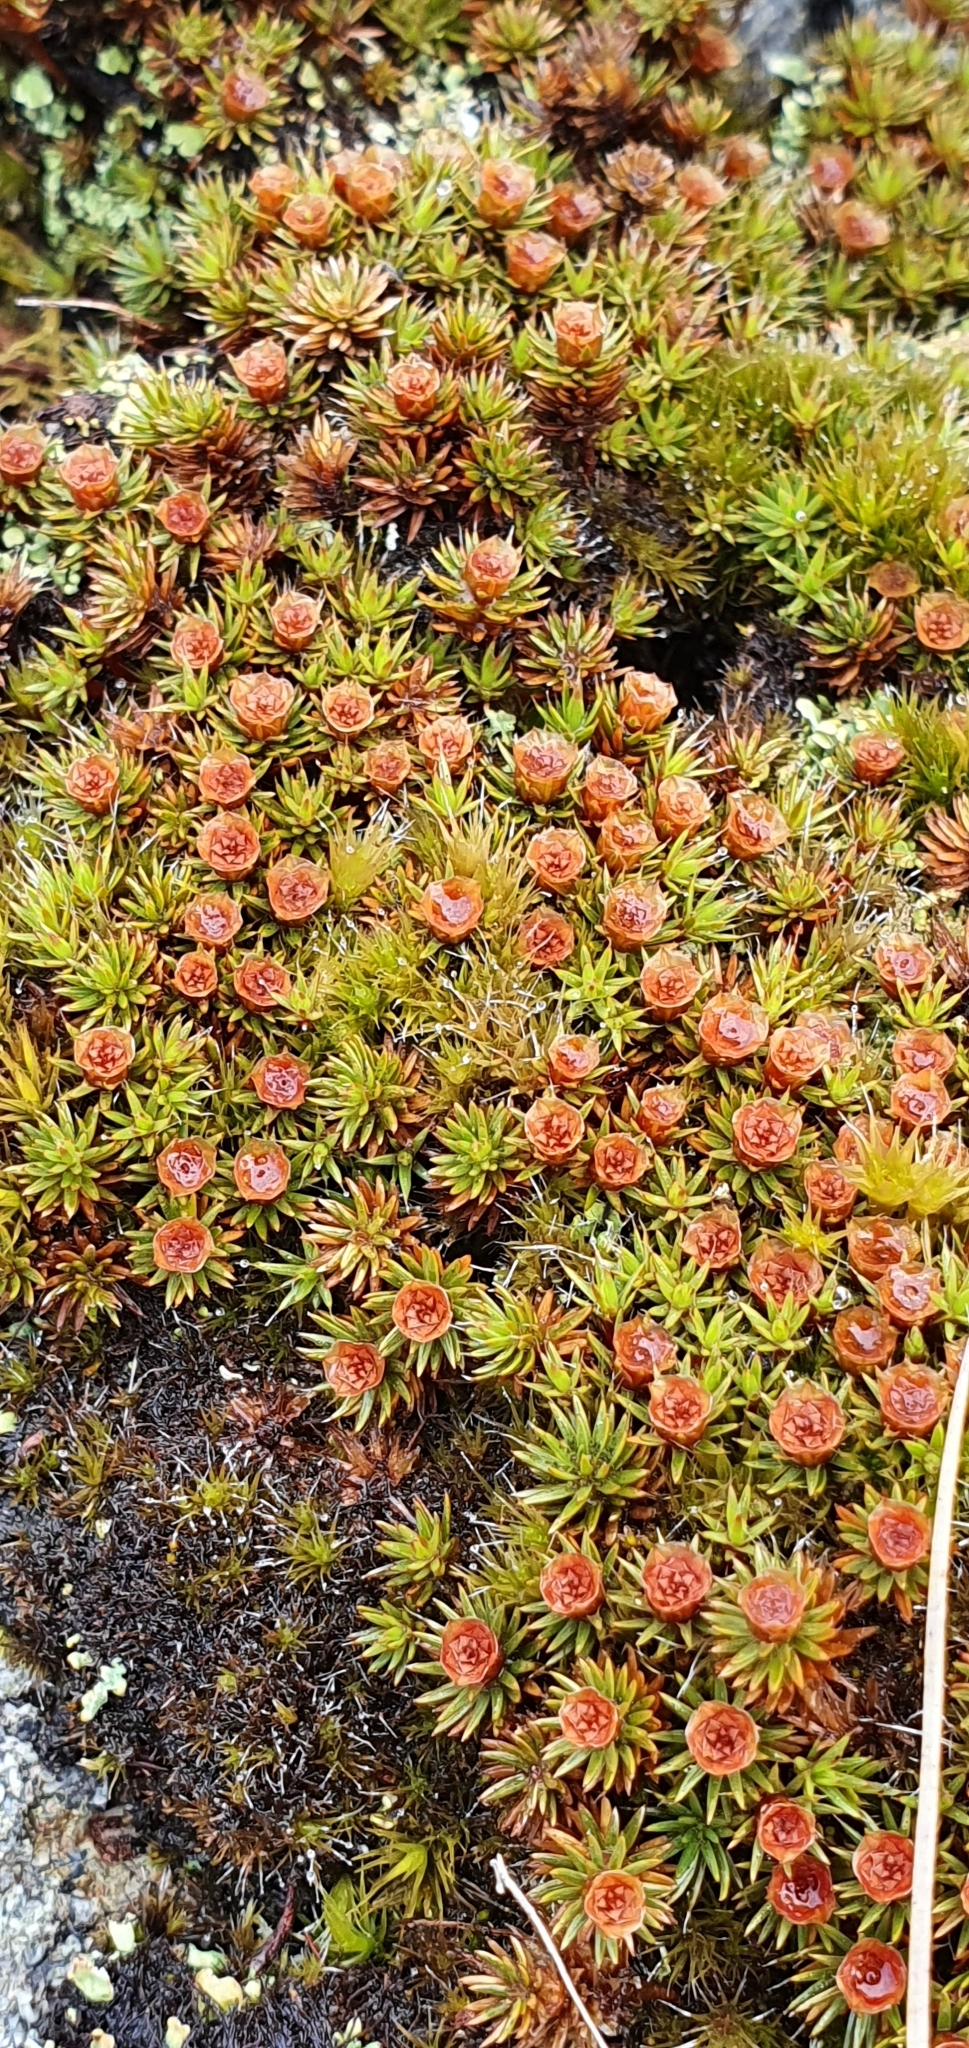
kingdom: Plantae
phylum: Bryophyta
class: Polytrichopsida
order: Polytrichales
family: Polytrichaceae
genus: Polytrichum
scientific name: Polytrichum piliferum
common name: Bristly haircap
